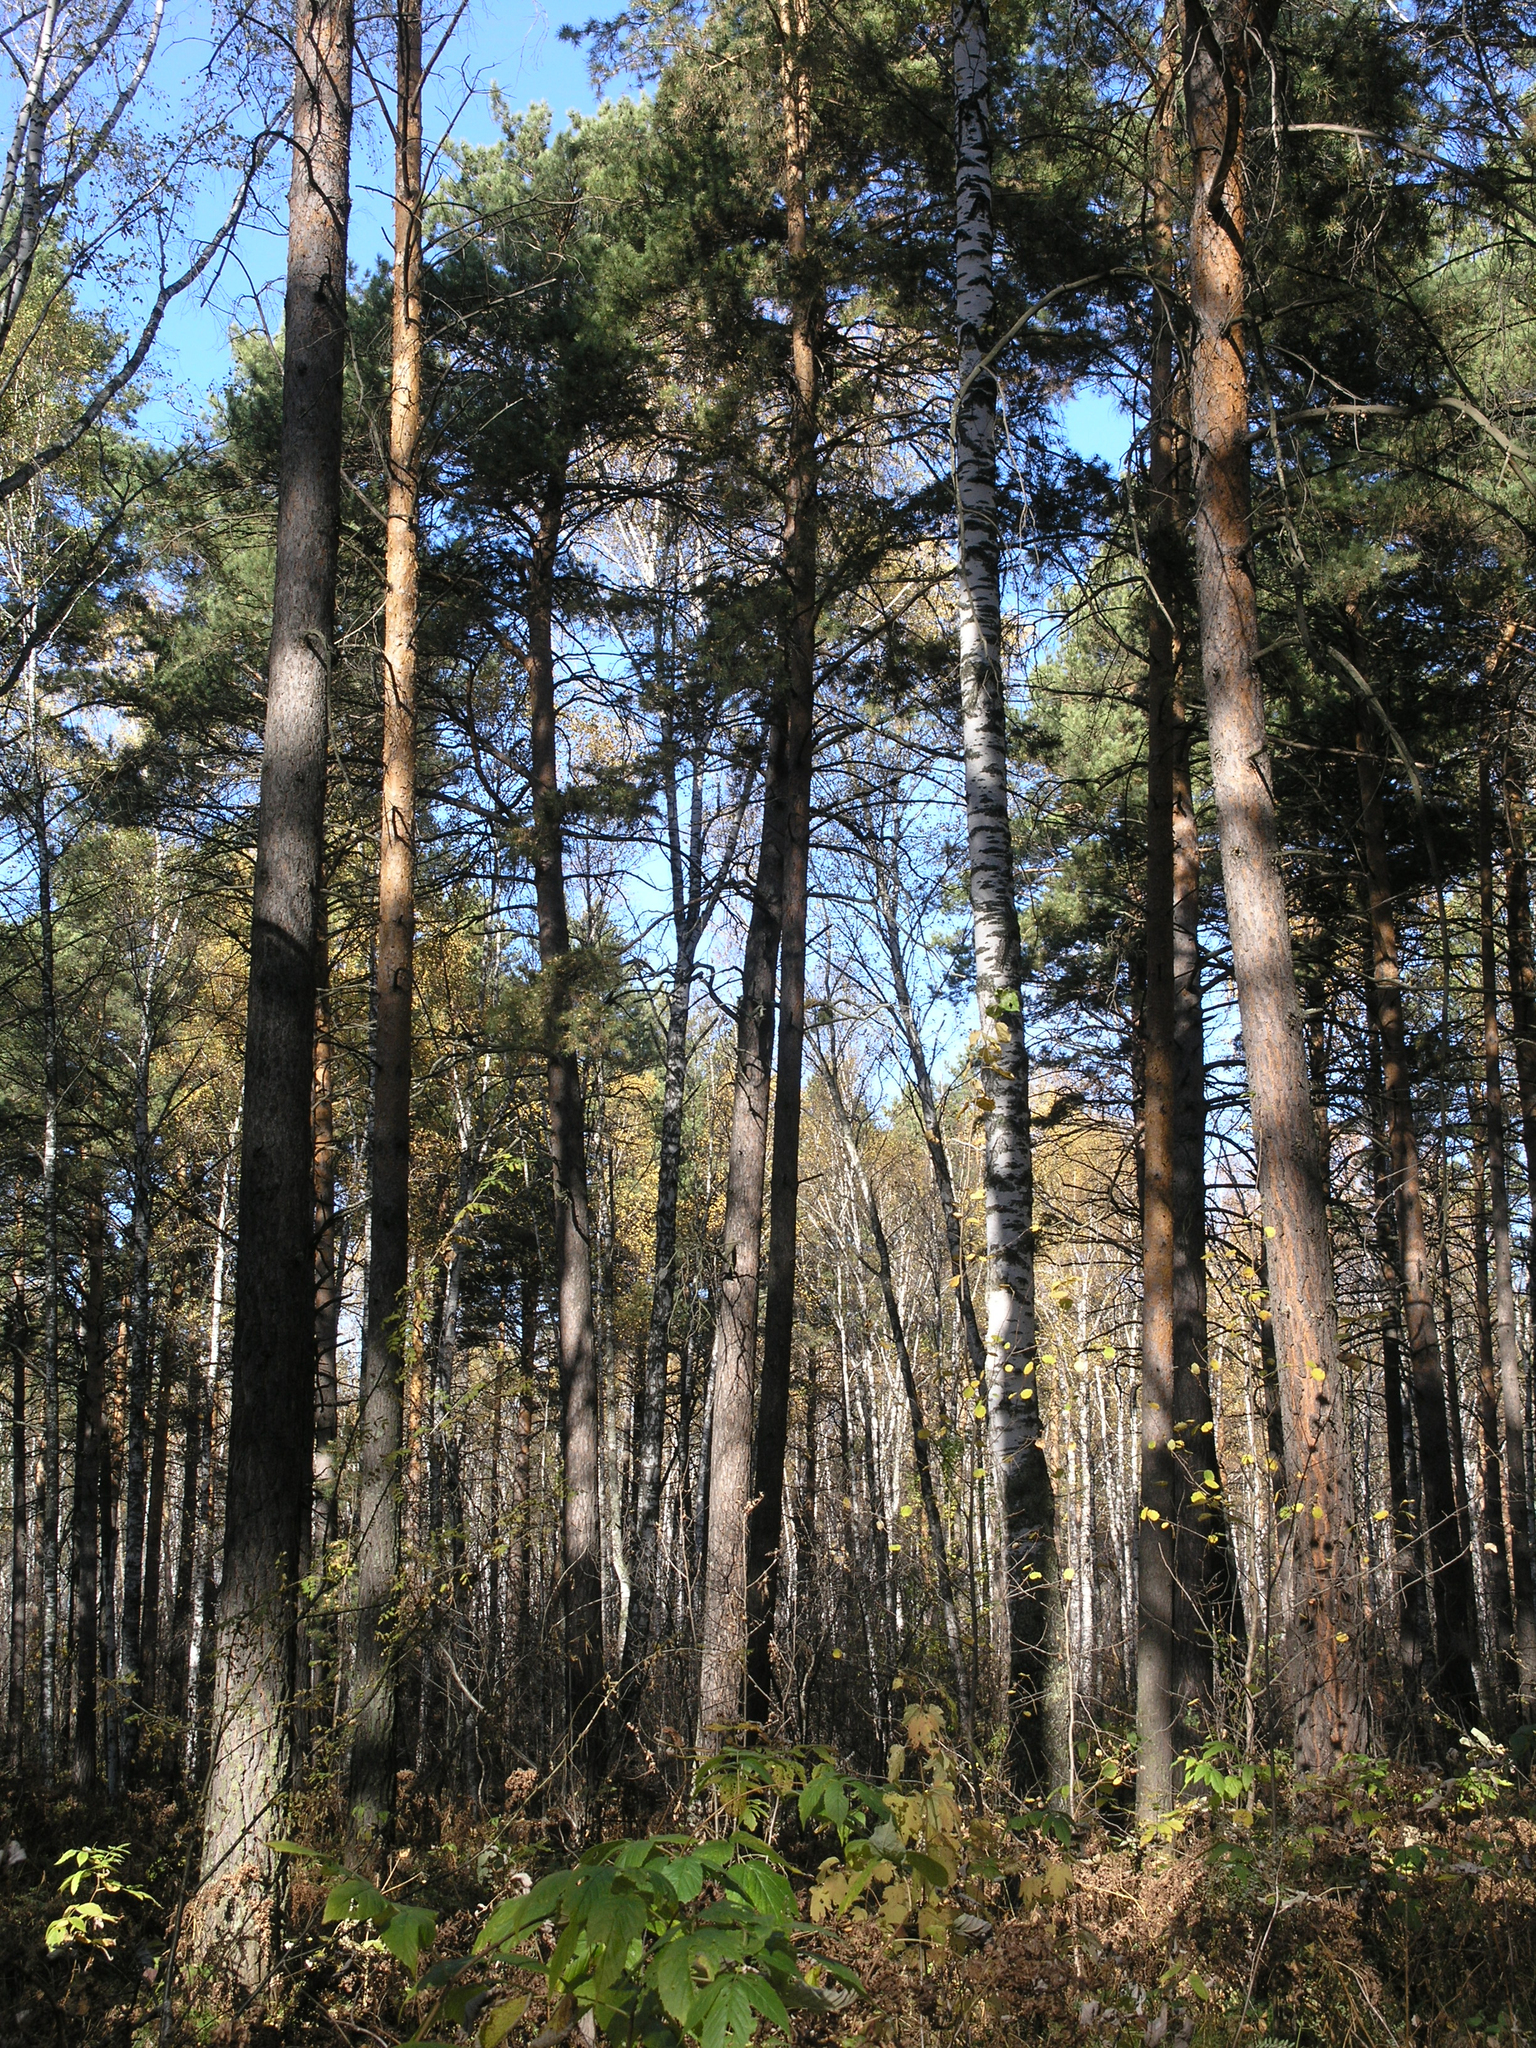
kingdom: Plantae
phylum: Tracheophyta
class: Pinopsida
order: Pinales
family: Pinaceae
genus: Pinus
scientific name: Pinus sylvestris
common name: Scots pine
